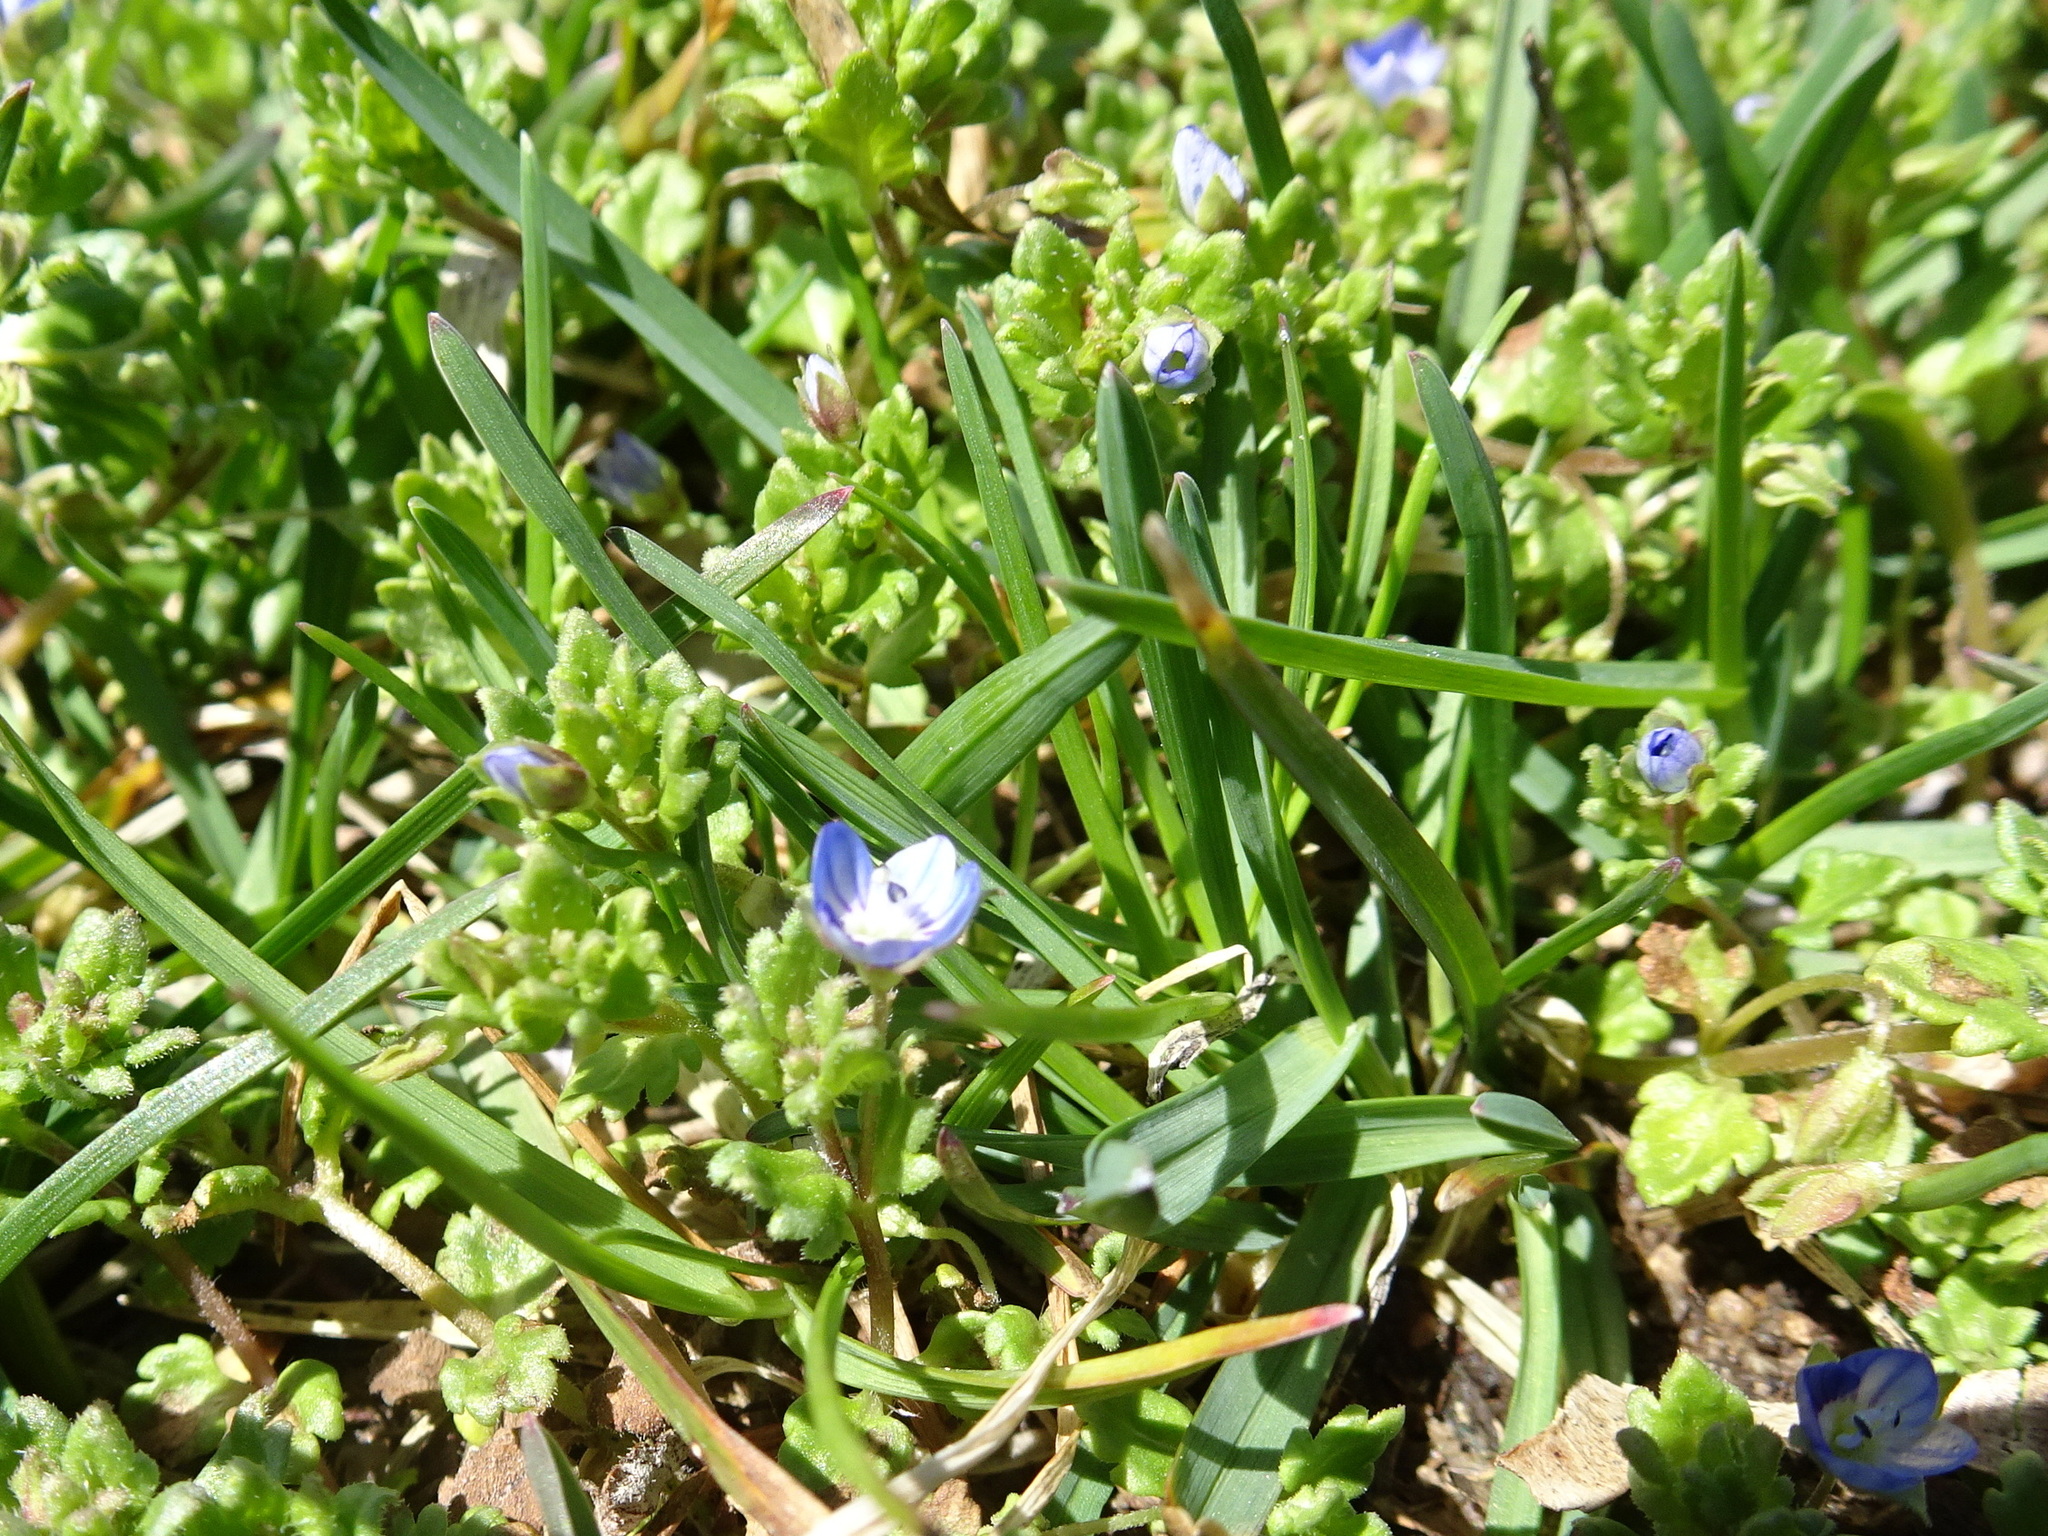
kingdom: Plantae
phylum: Tracheophyta
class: Magnoliopsida
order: Lamiales
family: Plantaginaceae
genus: Veronica
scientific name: Veronica polita
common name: Grey field-speedwell
